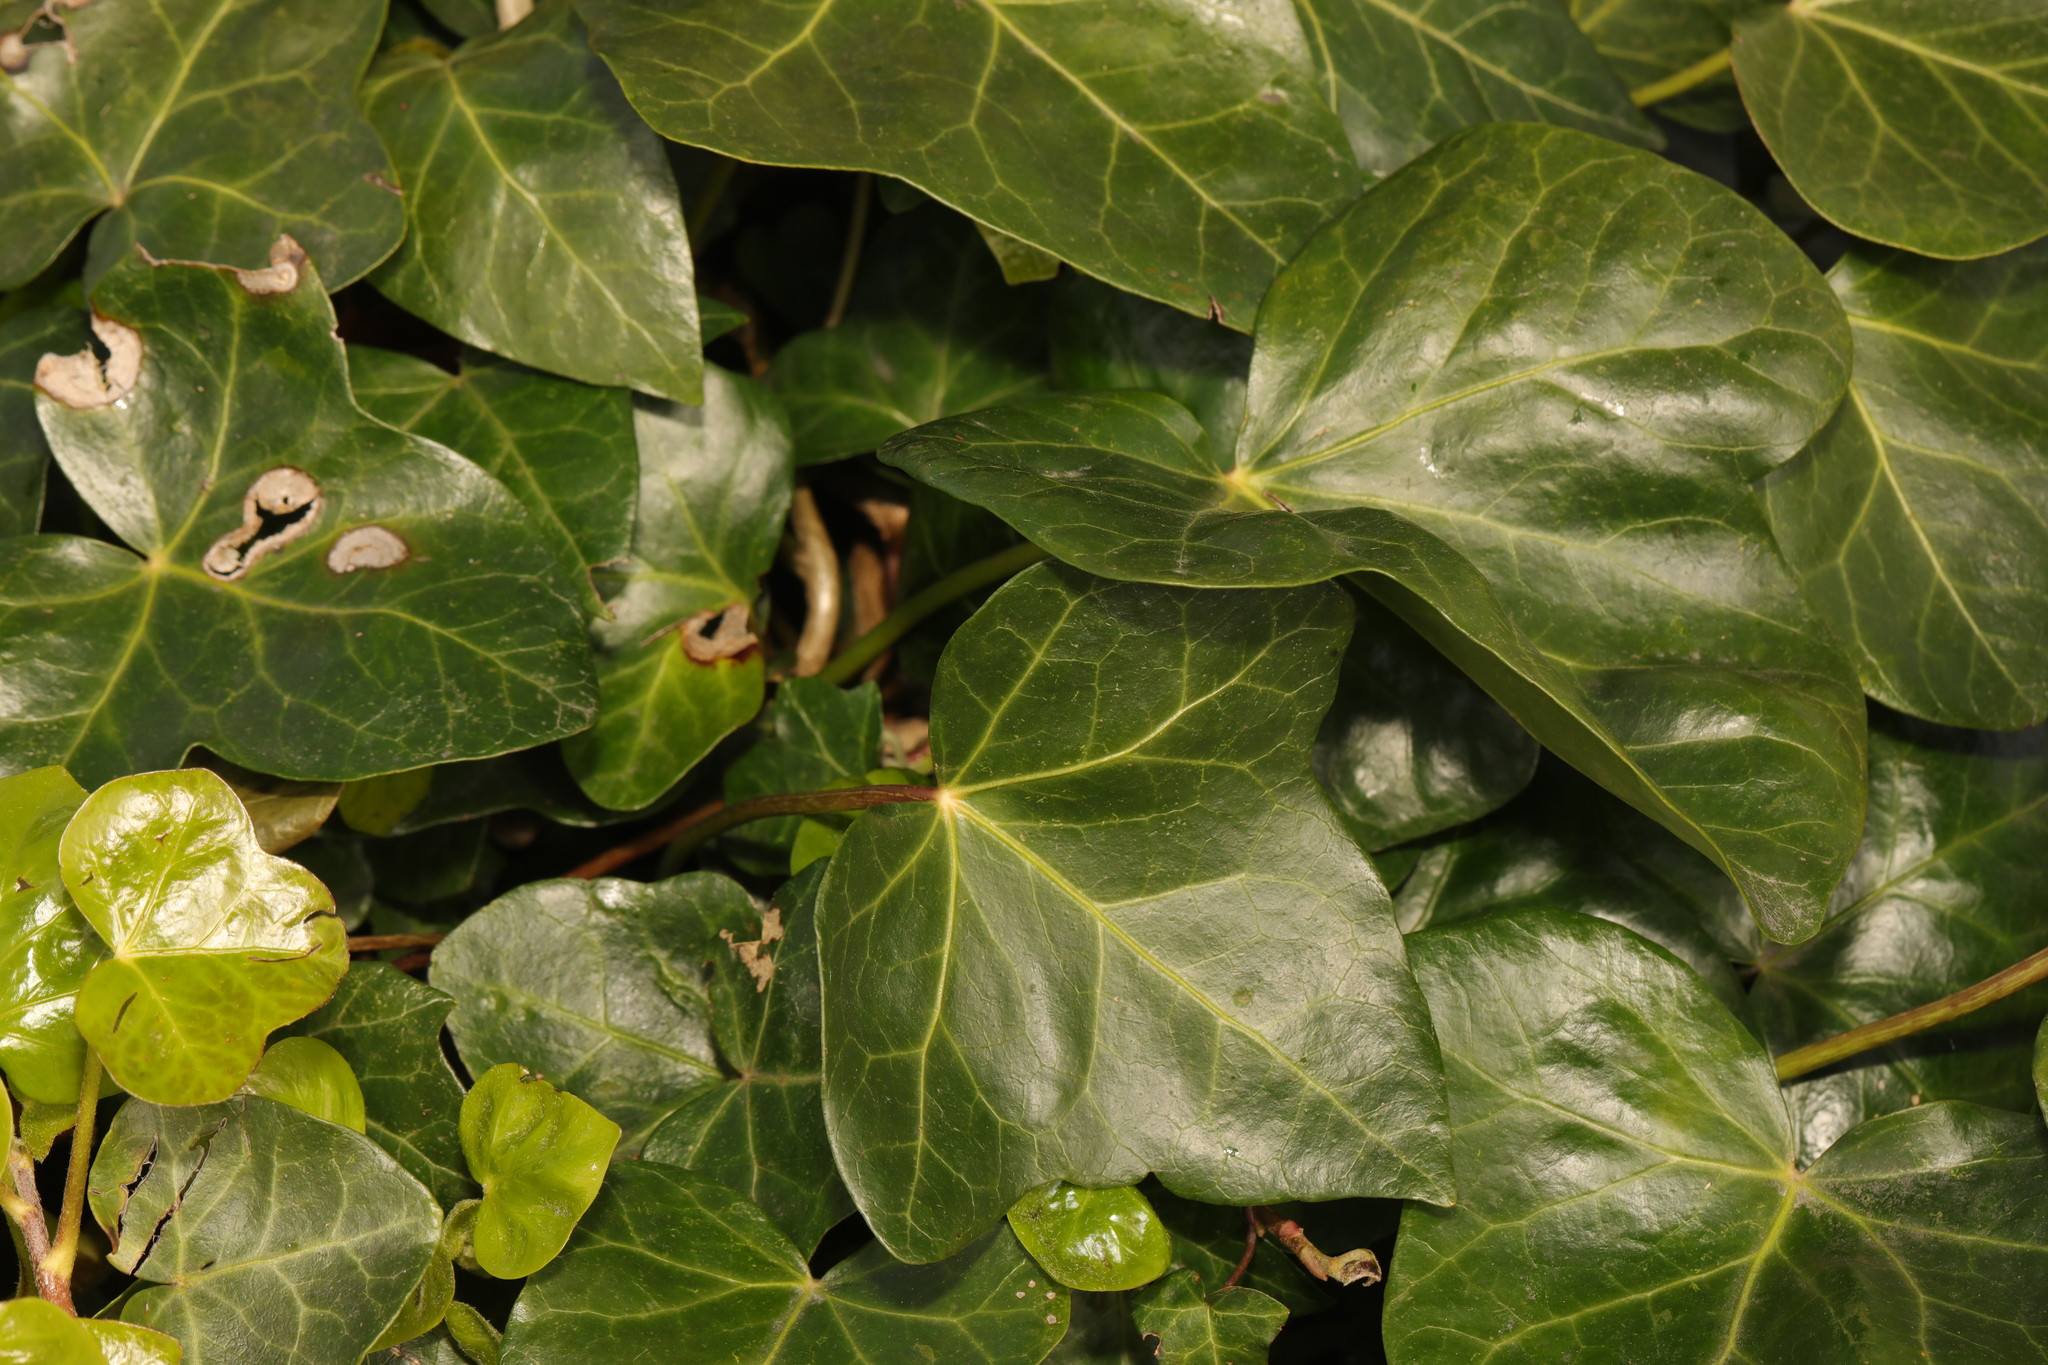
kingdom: Plantae
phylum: Tracheophyta
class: Magnoliopsida
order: Apiales
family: Araliaceae
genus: Hedera
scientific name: Hedera helix
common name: Ivy
